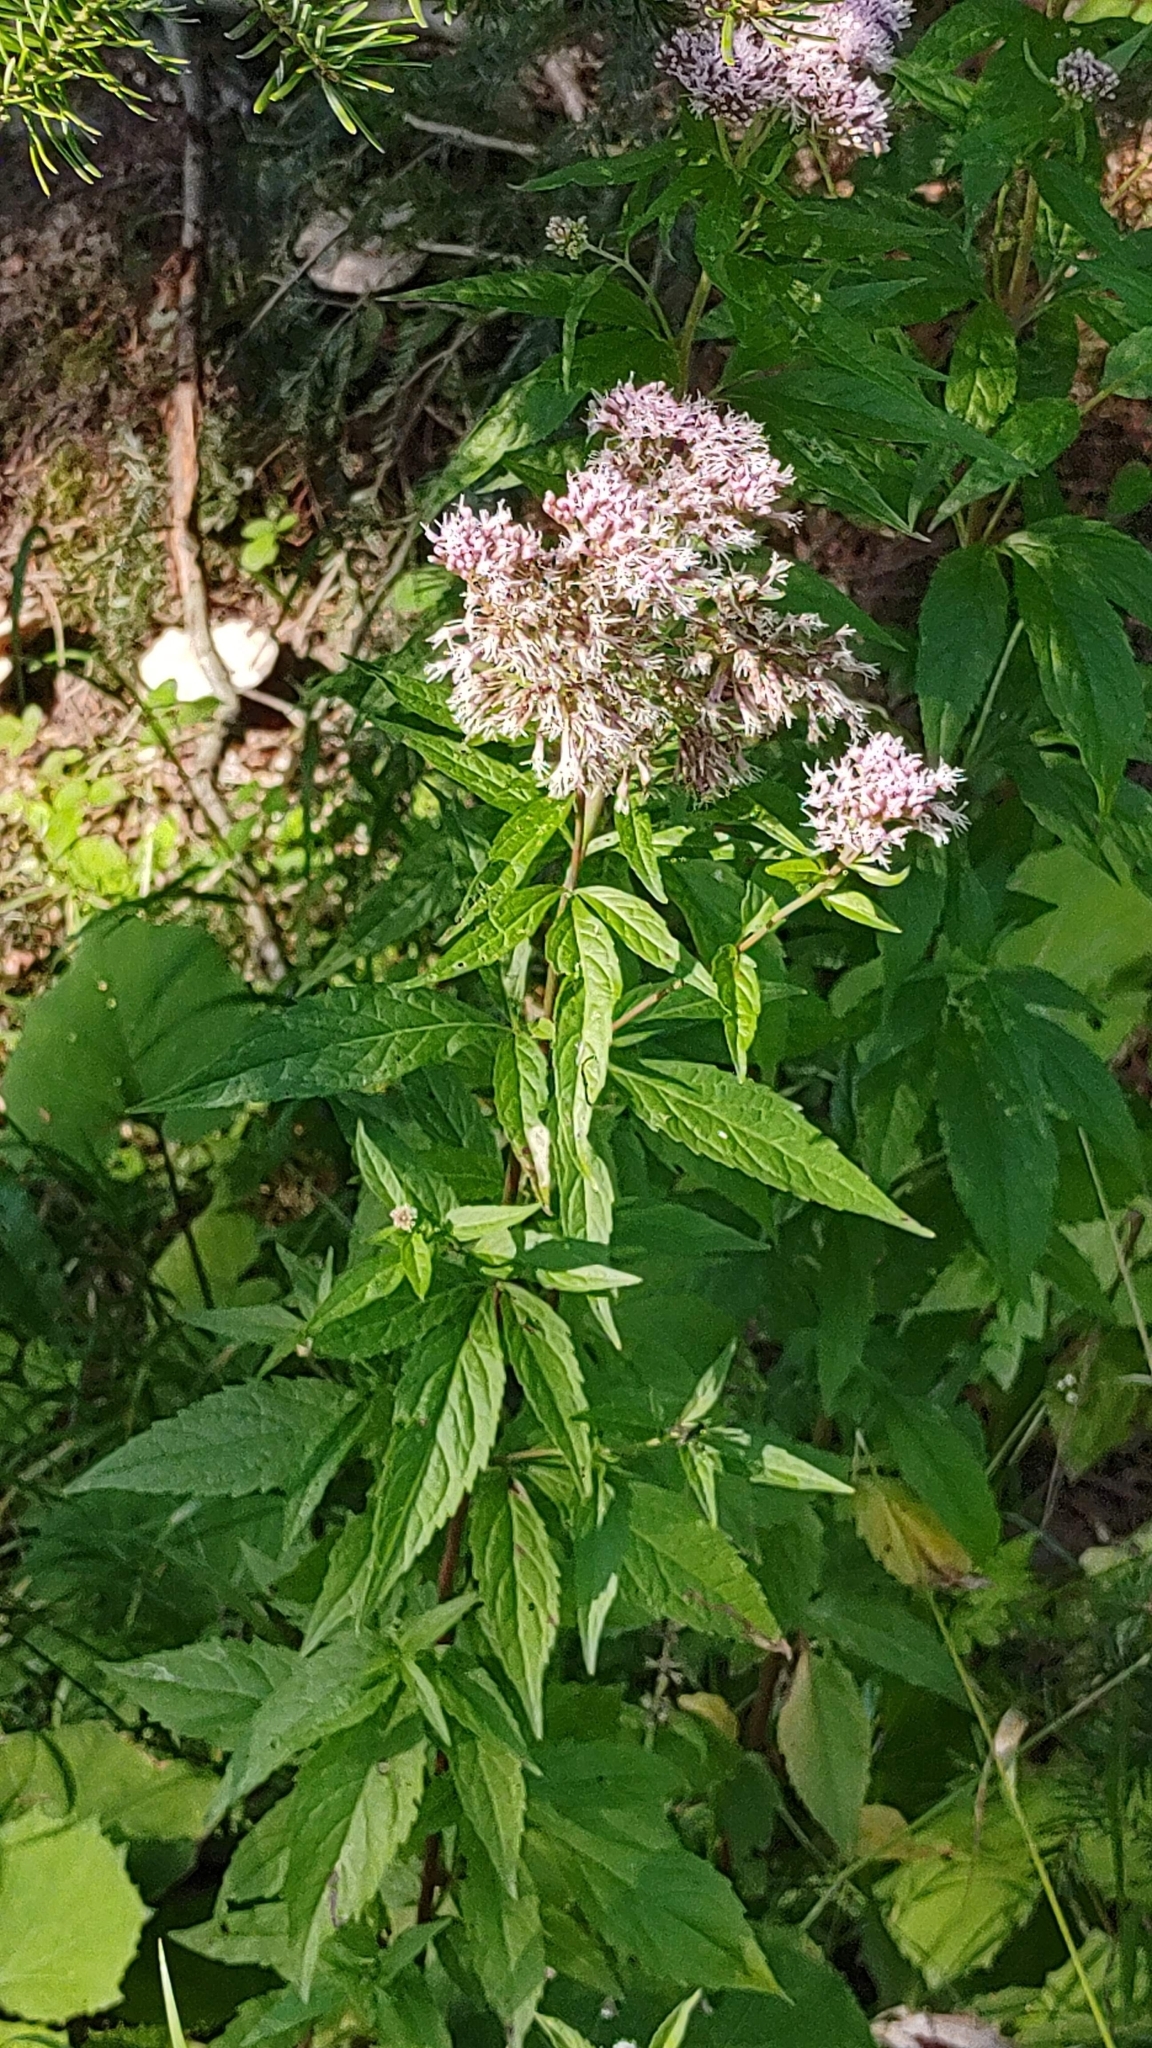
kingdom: Plantae
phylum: Tracheophyta
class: Magnoliopsida
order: Asterales
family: Asteraceae
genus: Eupatorium
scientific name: Eupatorium cannabinum
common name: Hemp-agrimony
